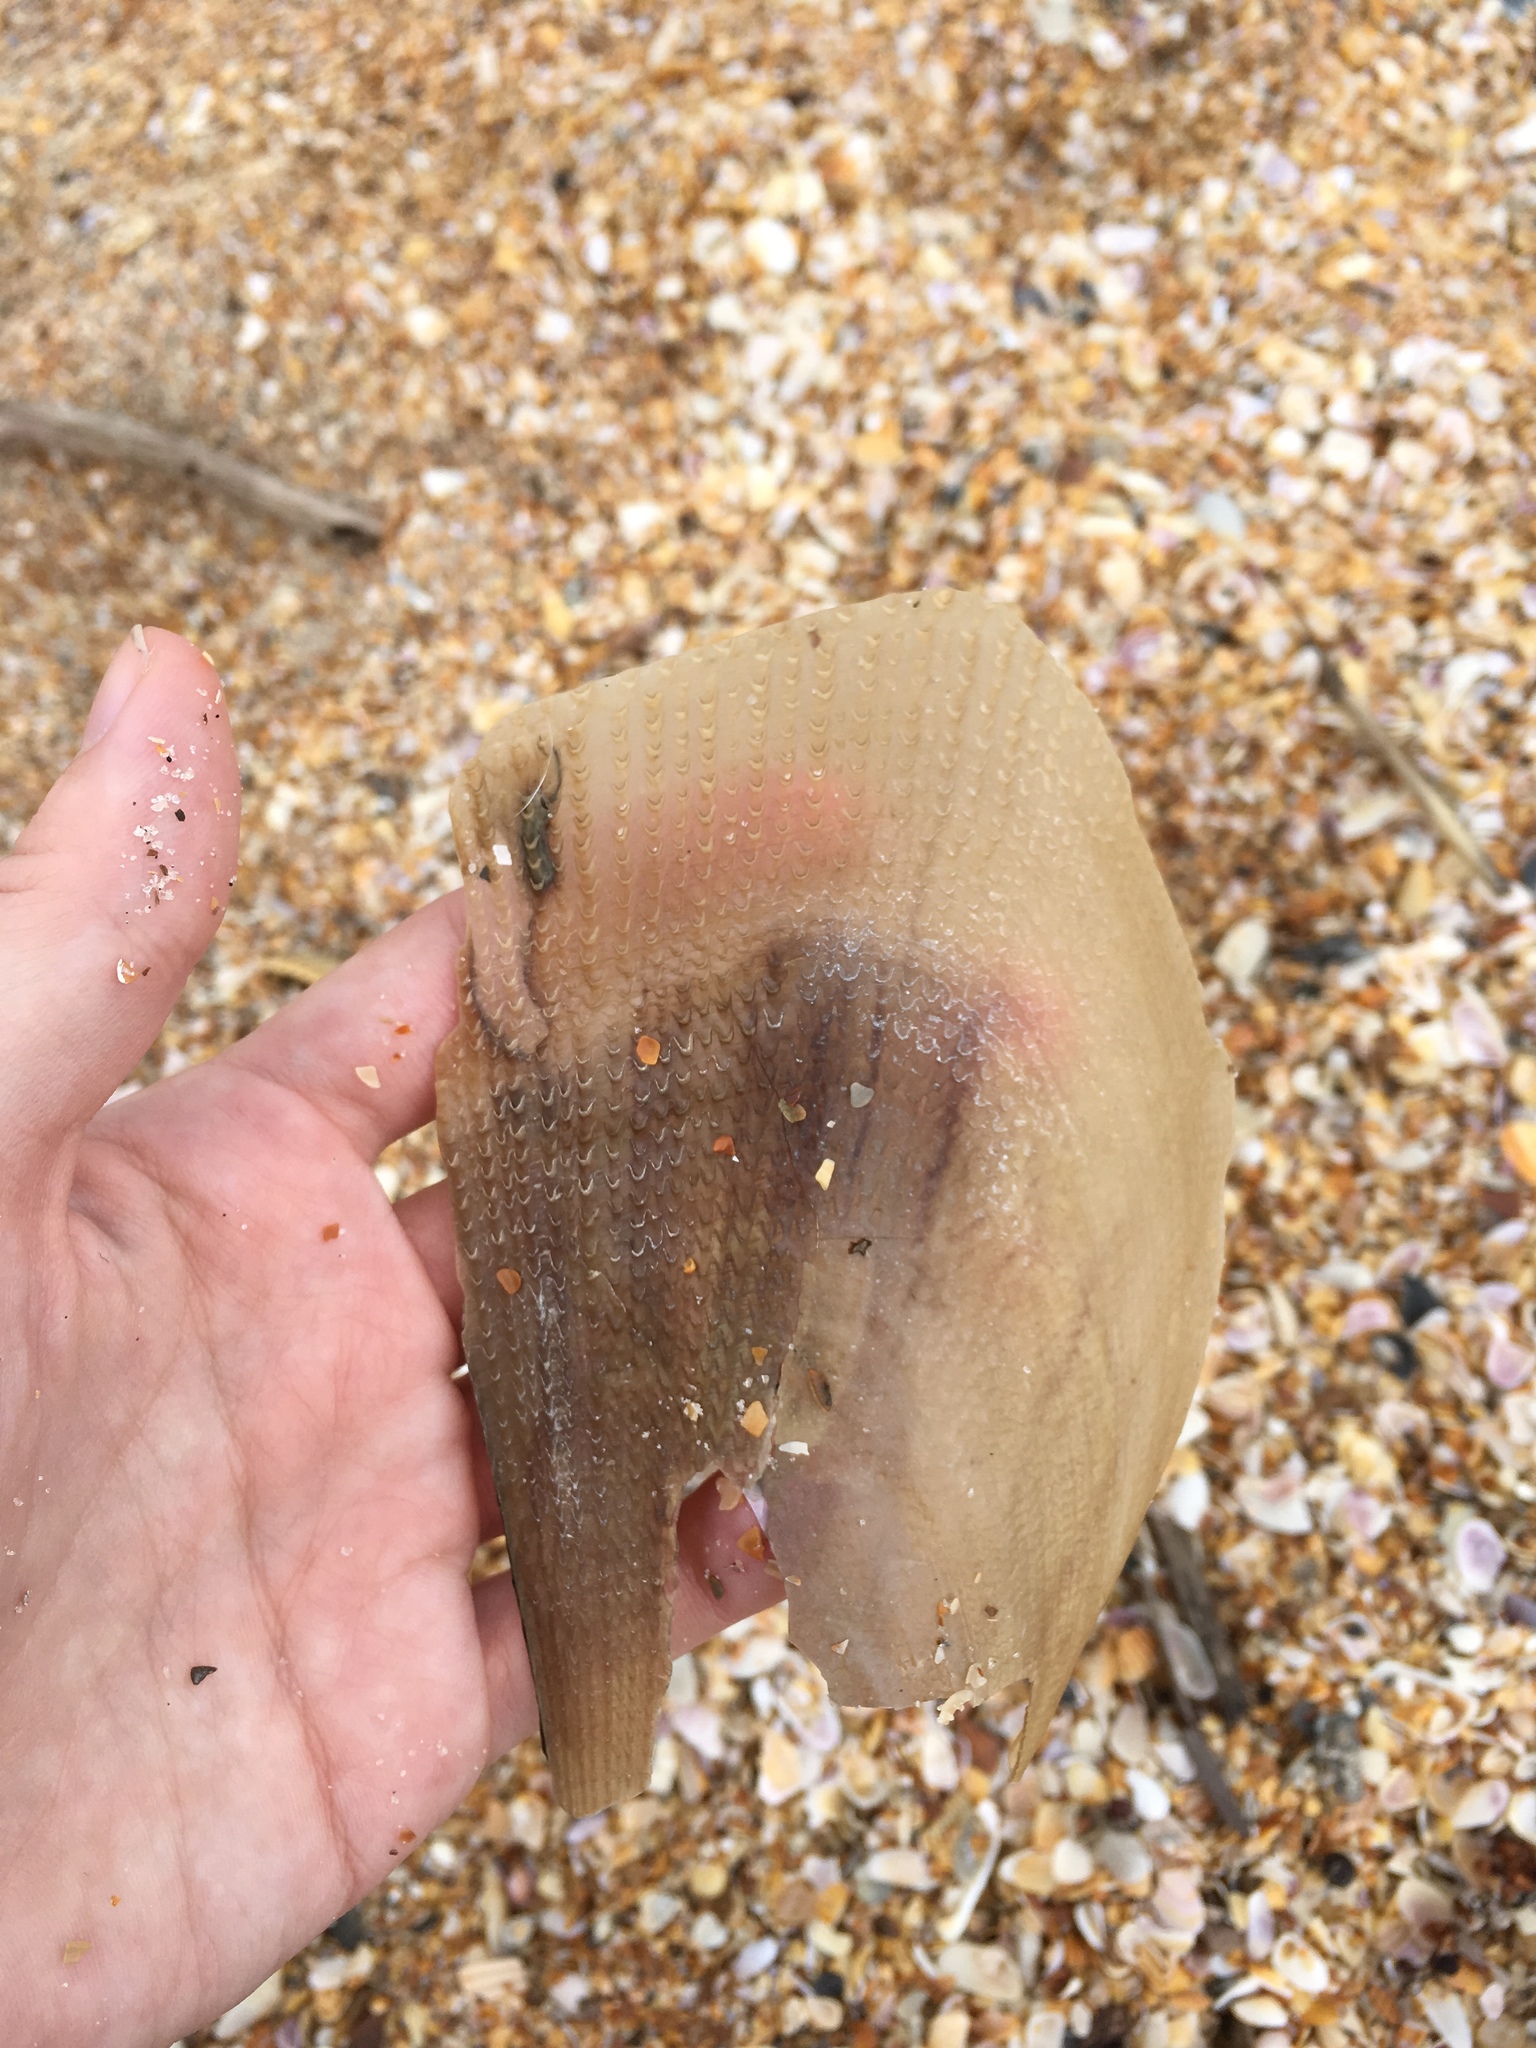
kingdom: Animalia
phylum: Mollusca
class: Bivalvia
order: Ostreida
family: Pinnidae
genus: Atrina
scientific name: Atrina serrata
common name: Saw-toothed penshell
